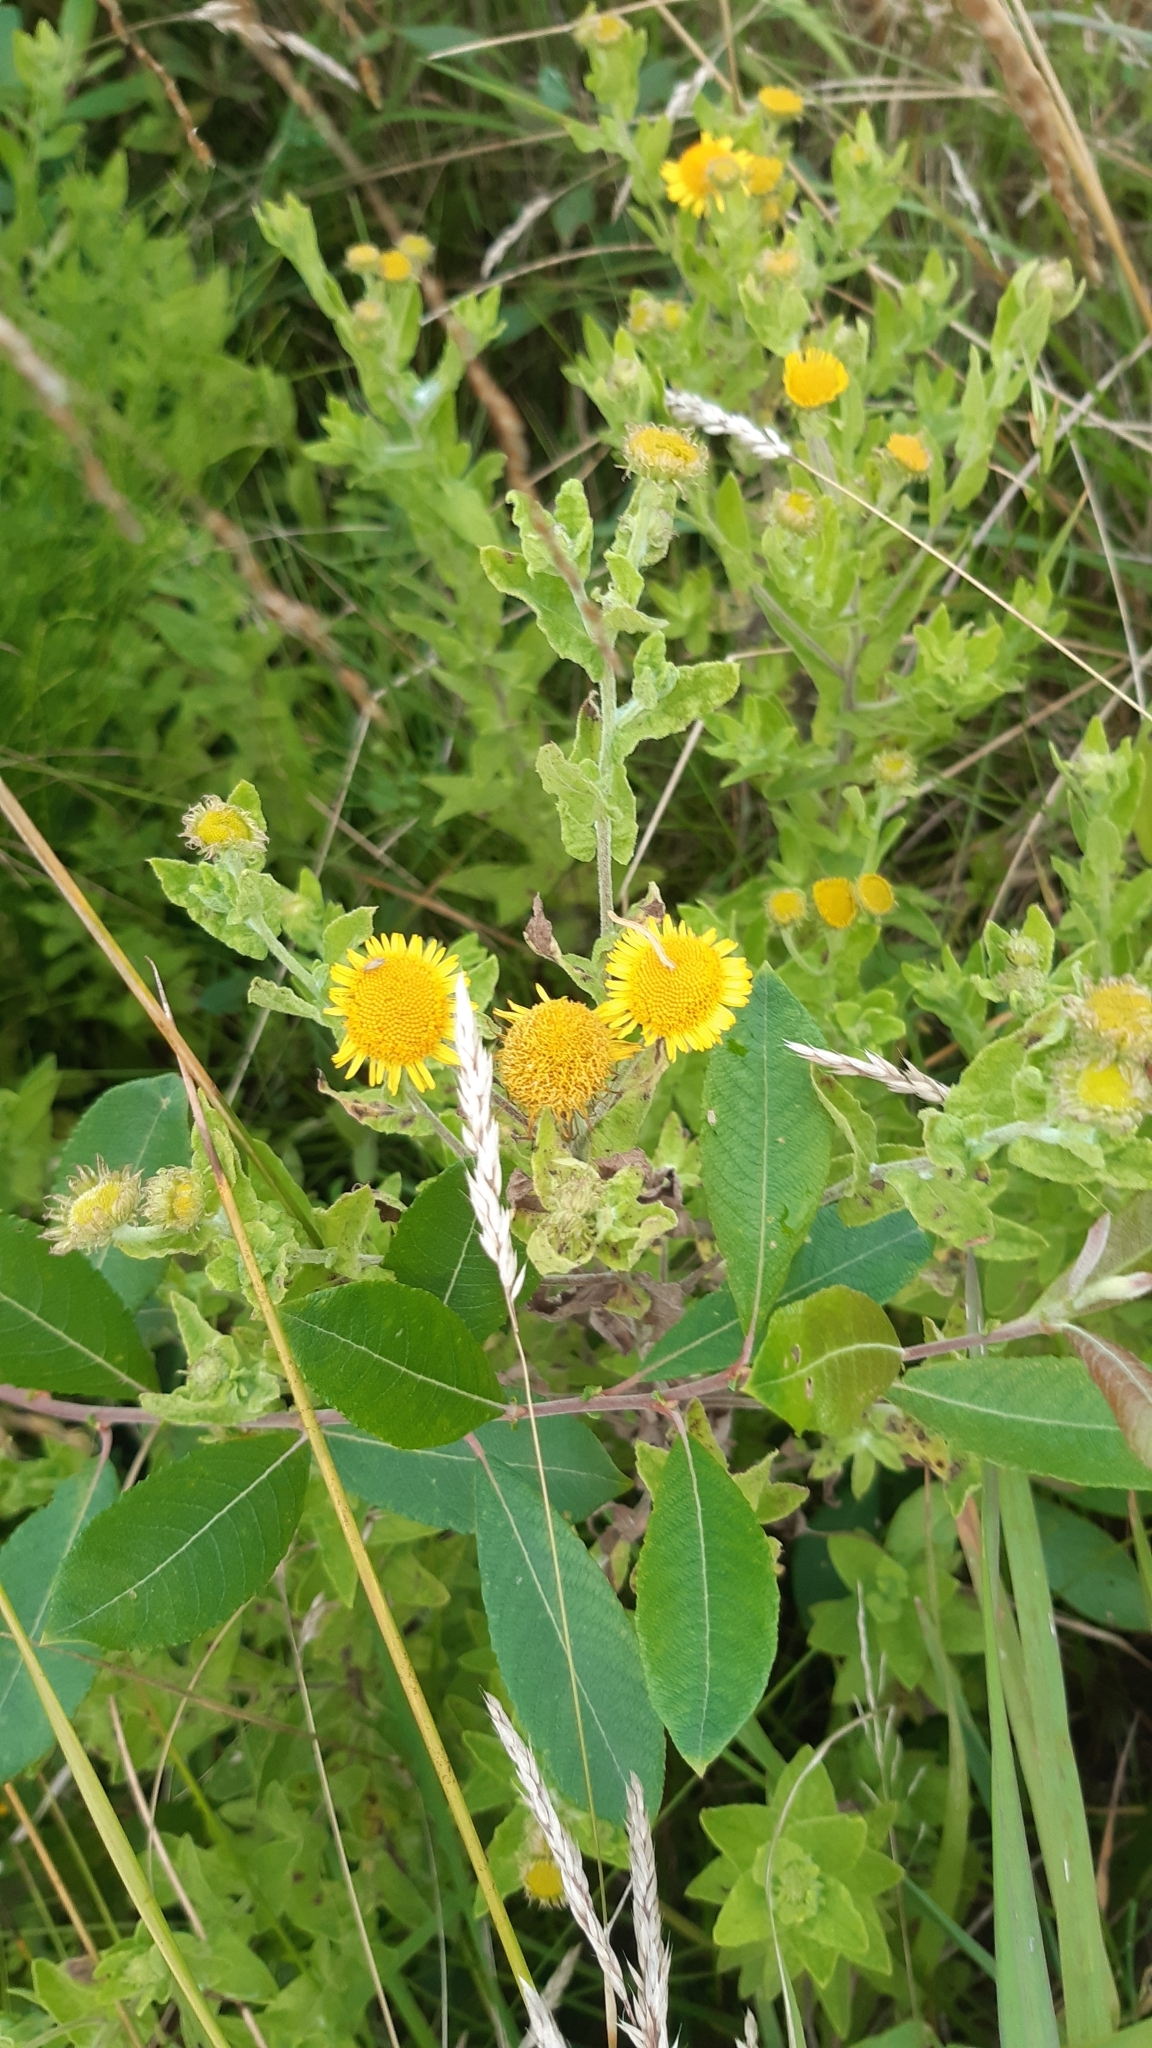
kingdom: Plantae
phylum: Tracheophyta
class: Magnoliopsida
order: Asterales
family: Asteraceae
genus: Pulicaria
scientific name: Pulicaria dysenterica
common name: Common fleabane
